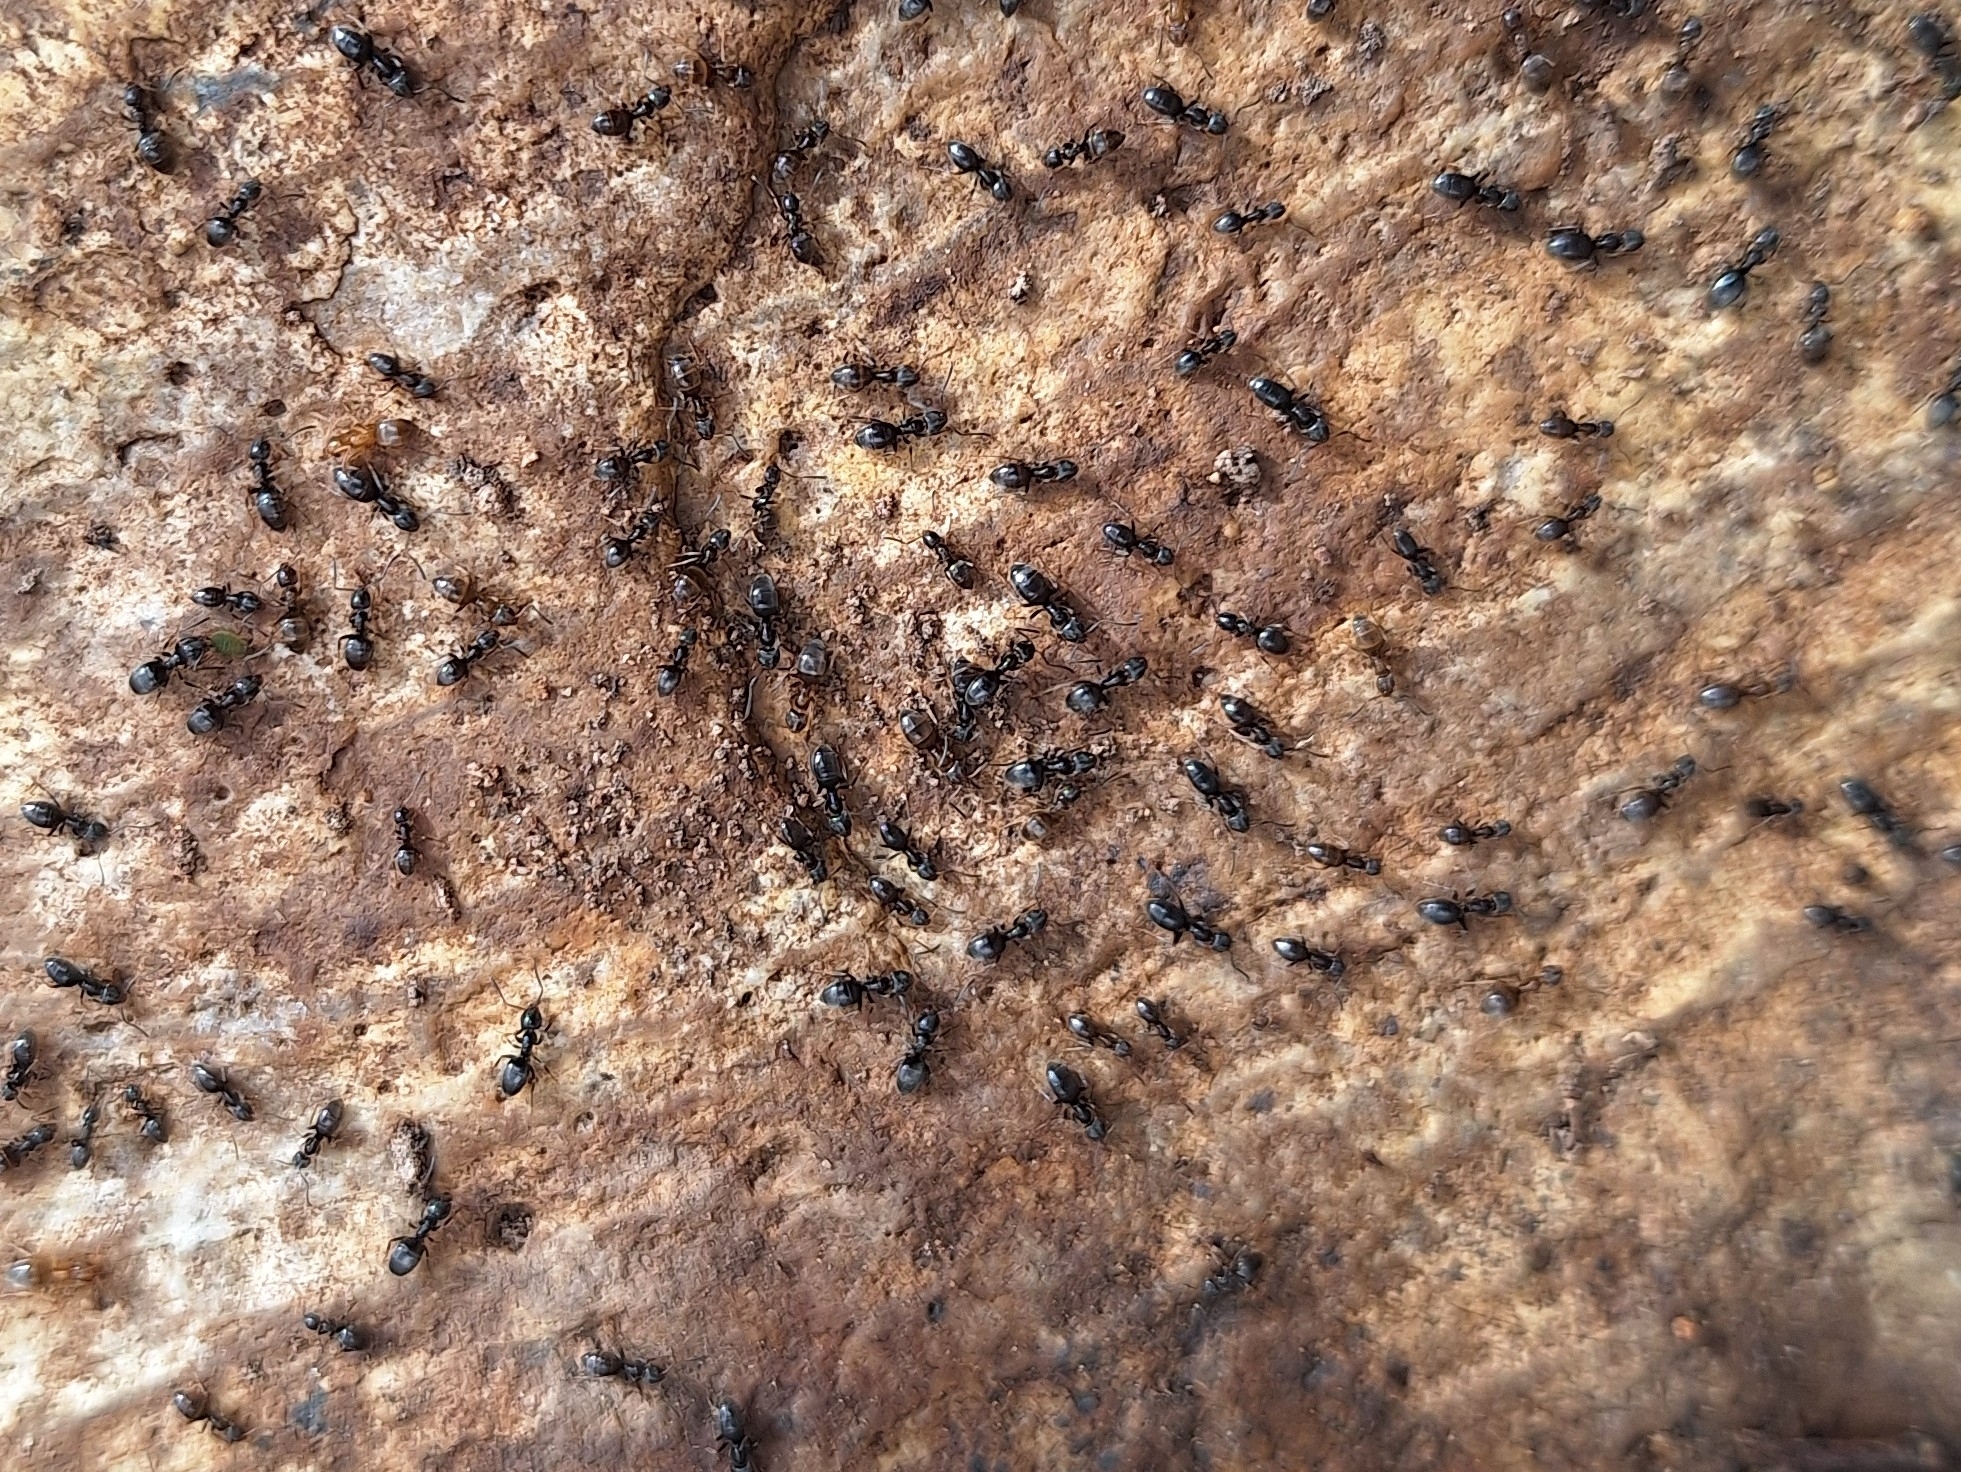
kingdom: Animalia
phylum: Arthropoda
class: Insecta
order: Hymenoptera
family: Formicidae
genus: Tapinoma
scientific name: Tapinoma sessile
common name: Odorous house ant
